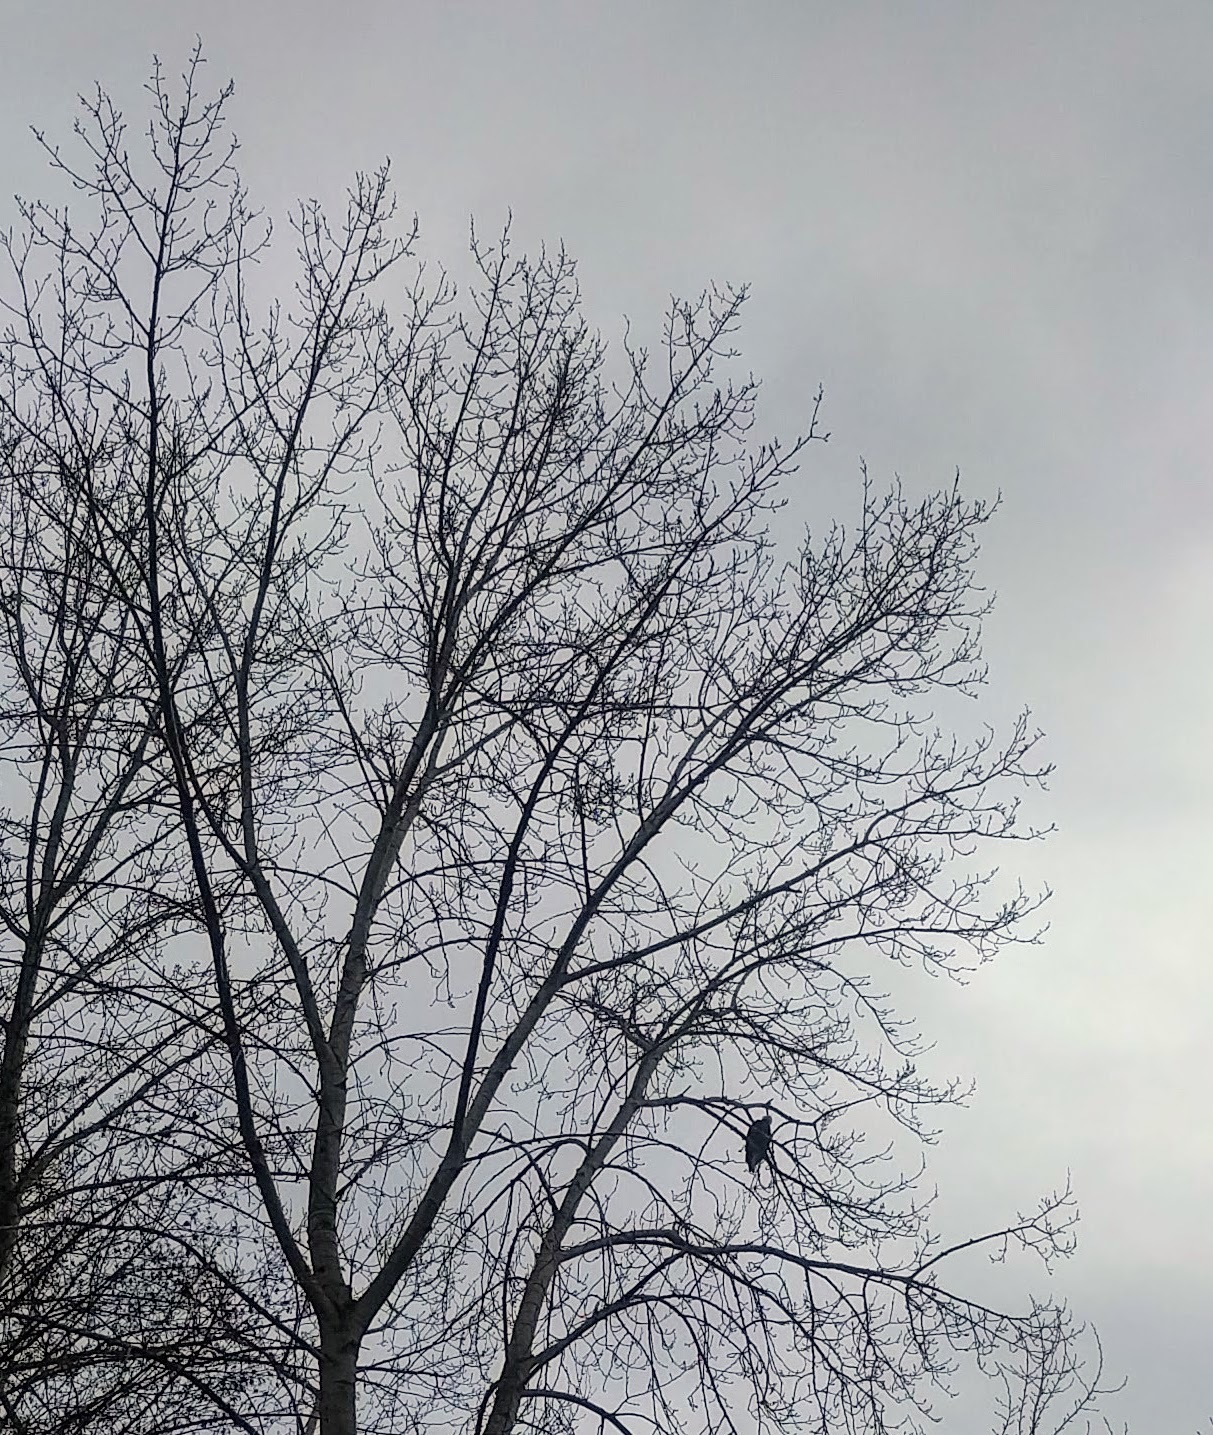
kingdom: Animalia
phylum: Chordata
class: Aves
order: Accipitriformes
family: Accipitridae
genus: Haliaeetus
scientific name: Haliaeetus leucocephalus
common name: Bald eagle
